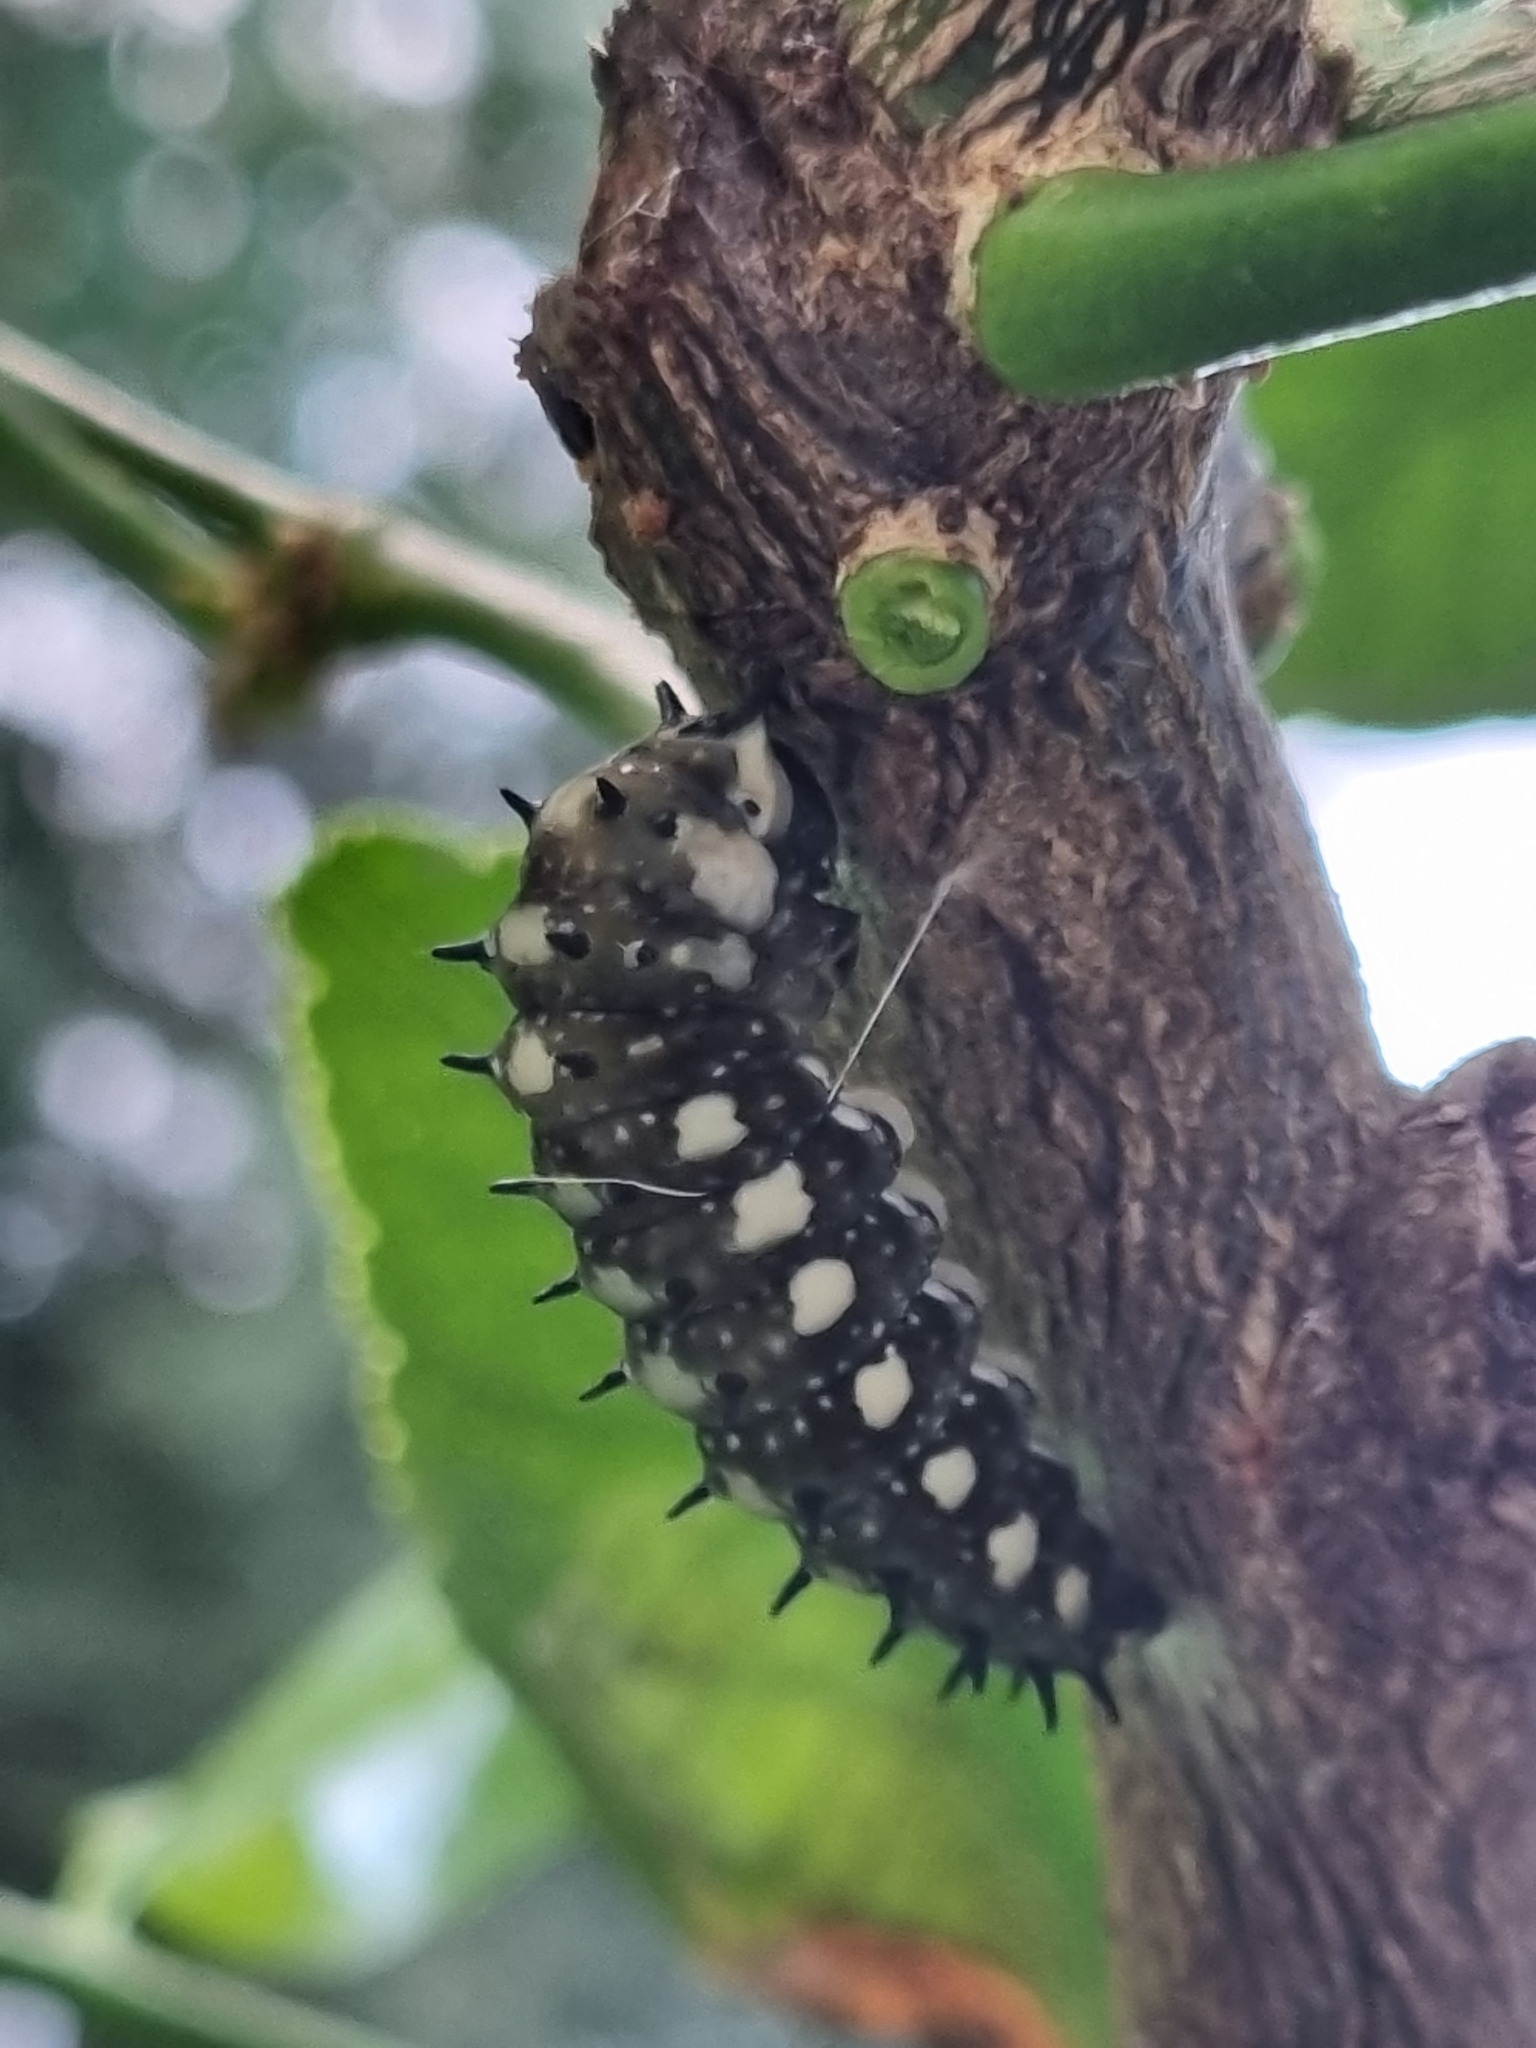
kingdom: Animalia
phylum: Arthropoda
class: Insecta
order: Lepidoptera
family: Papilionidae
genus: Papilio
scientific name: Papilio anactus
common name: Dingy swallowtail
